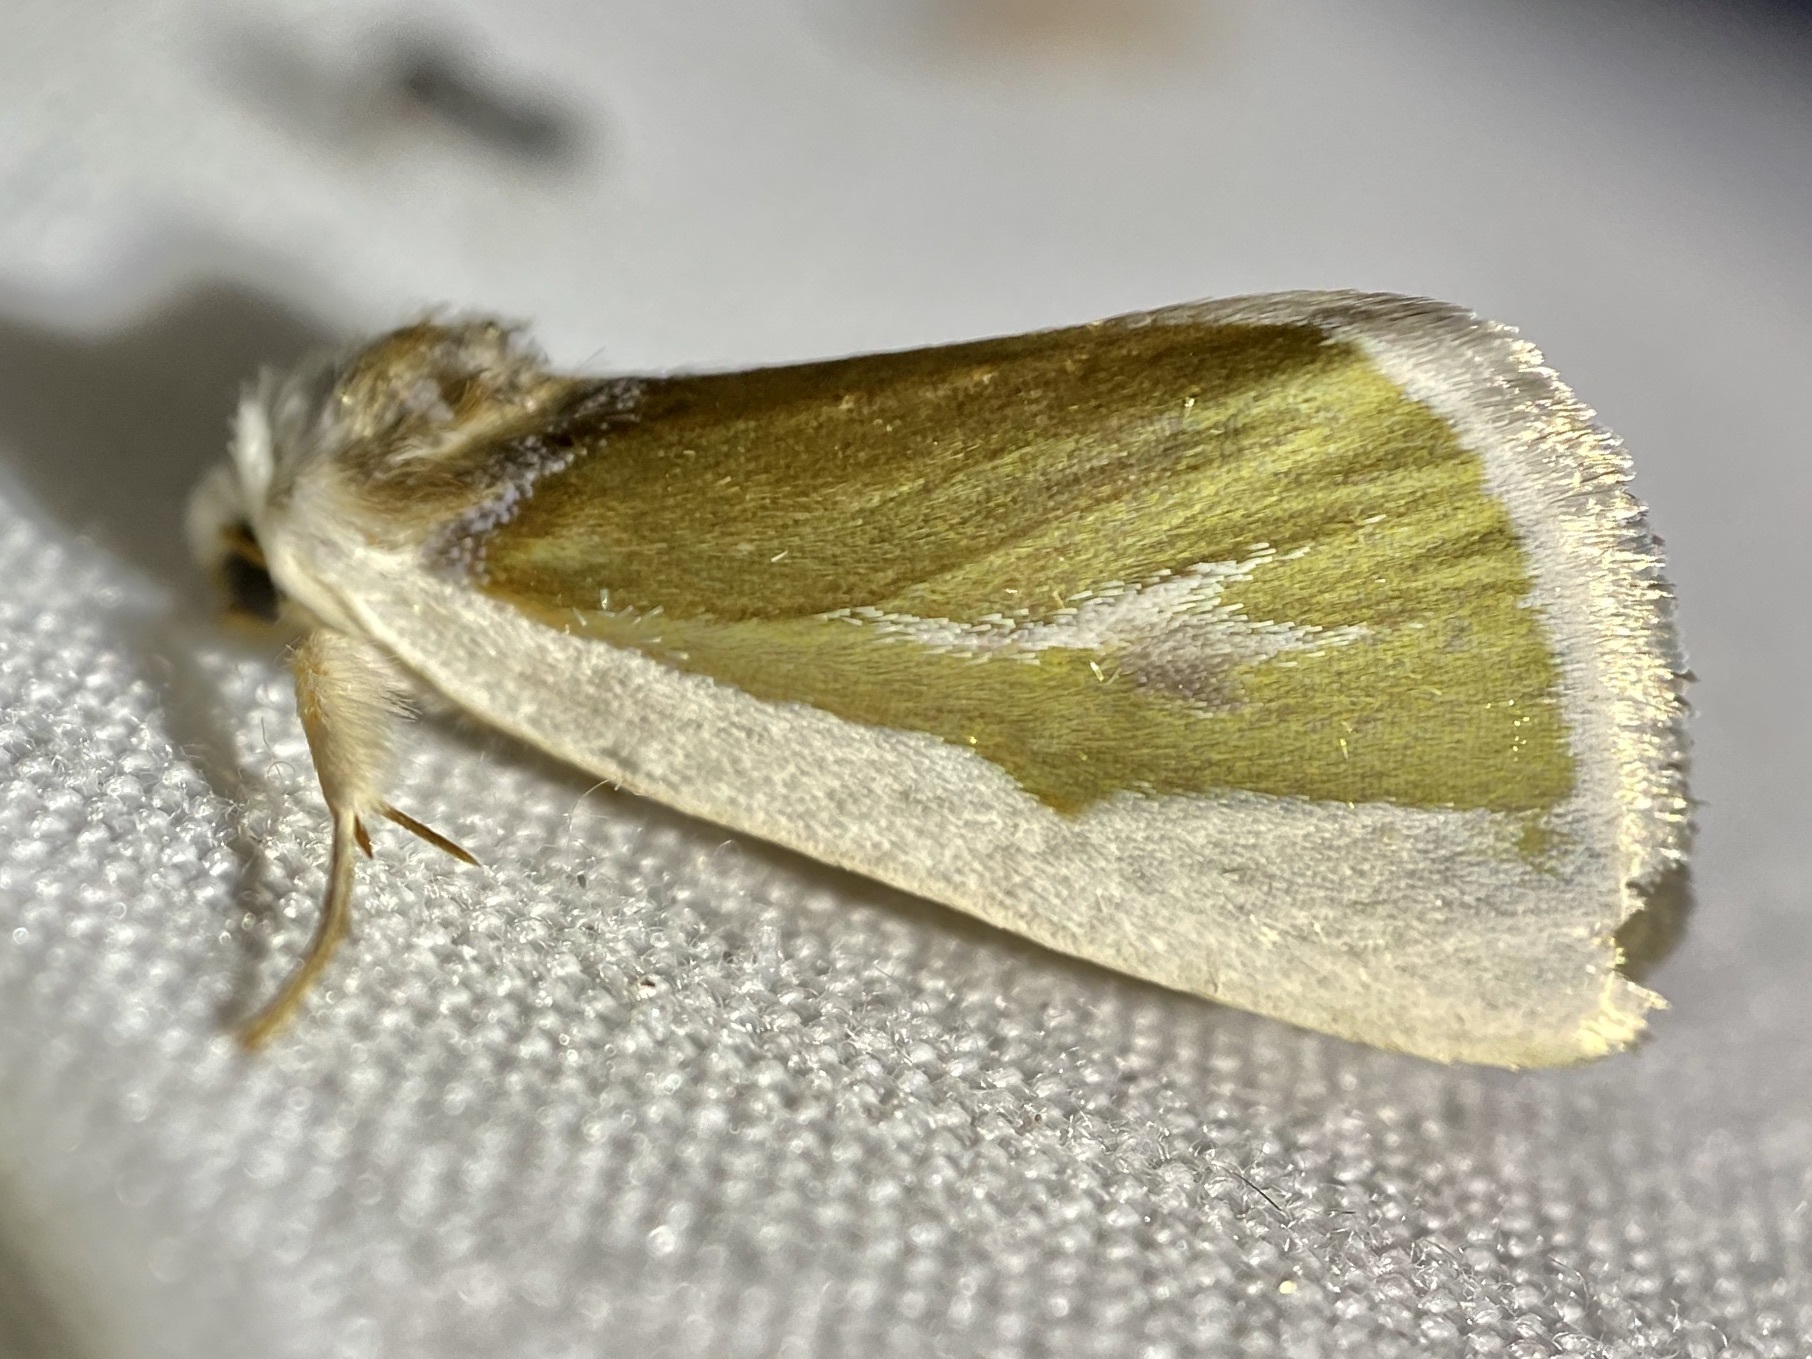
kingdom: Animalia
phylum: Arthropoda
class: Insecta
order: Lepidoptera
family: Noctuidae
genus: Neumoegenia
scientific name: Neumoegenia poetica
